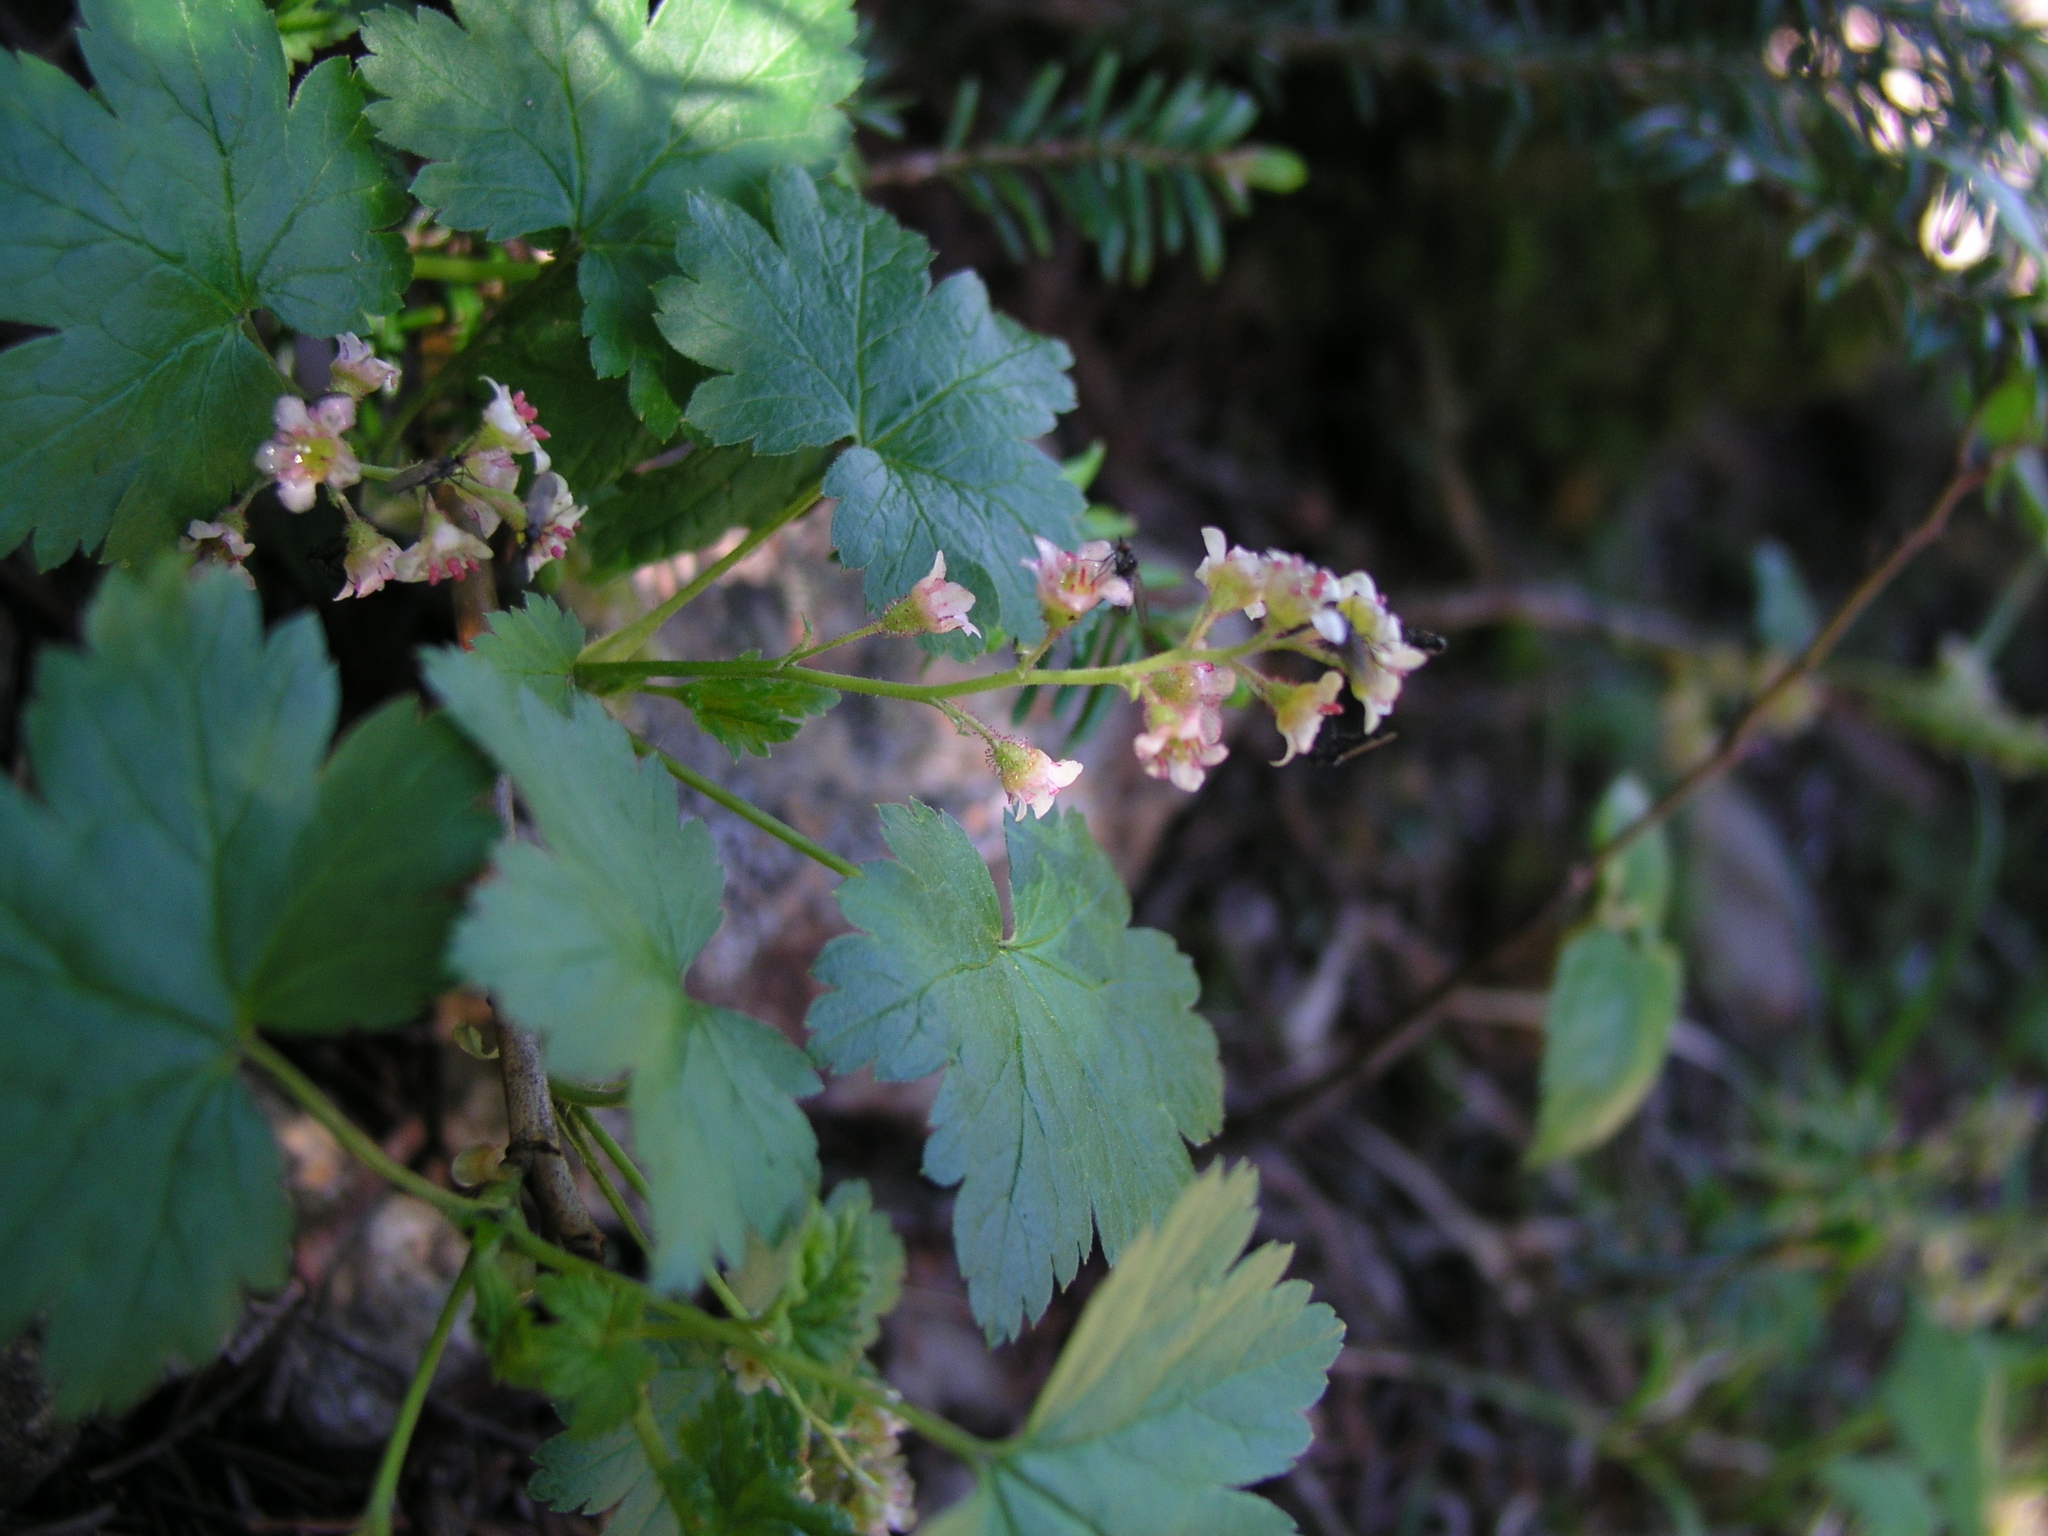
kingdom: Plantae
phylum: Tracheophyta
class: Magnoliopsida
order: Saxifragales
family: Grossulariaceae
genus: Ribes
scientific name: Ribes glandulosum
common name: Skunk currant
